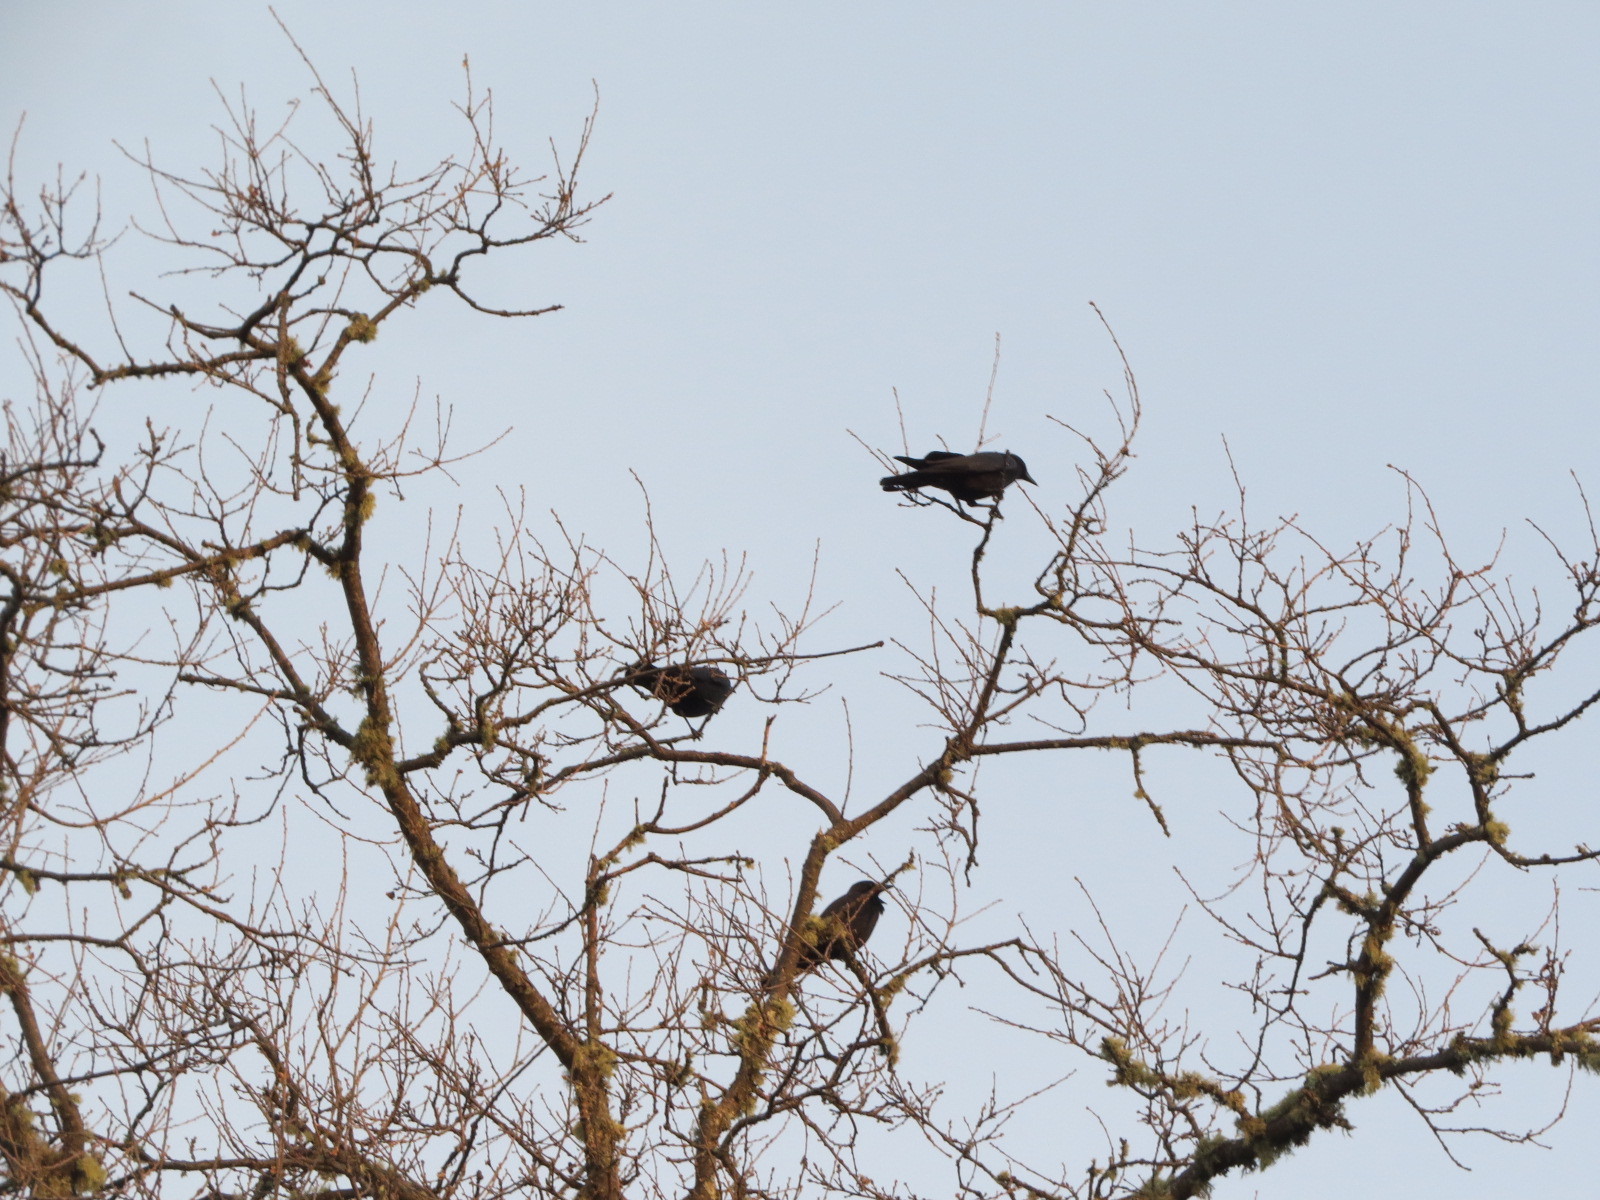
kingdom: Animalia
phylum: Chordata
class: Aves
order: Passeriformes
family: Corvidae
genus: Corvus
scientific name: Corvus brachyrhynchos
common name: American crow
